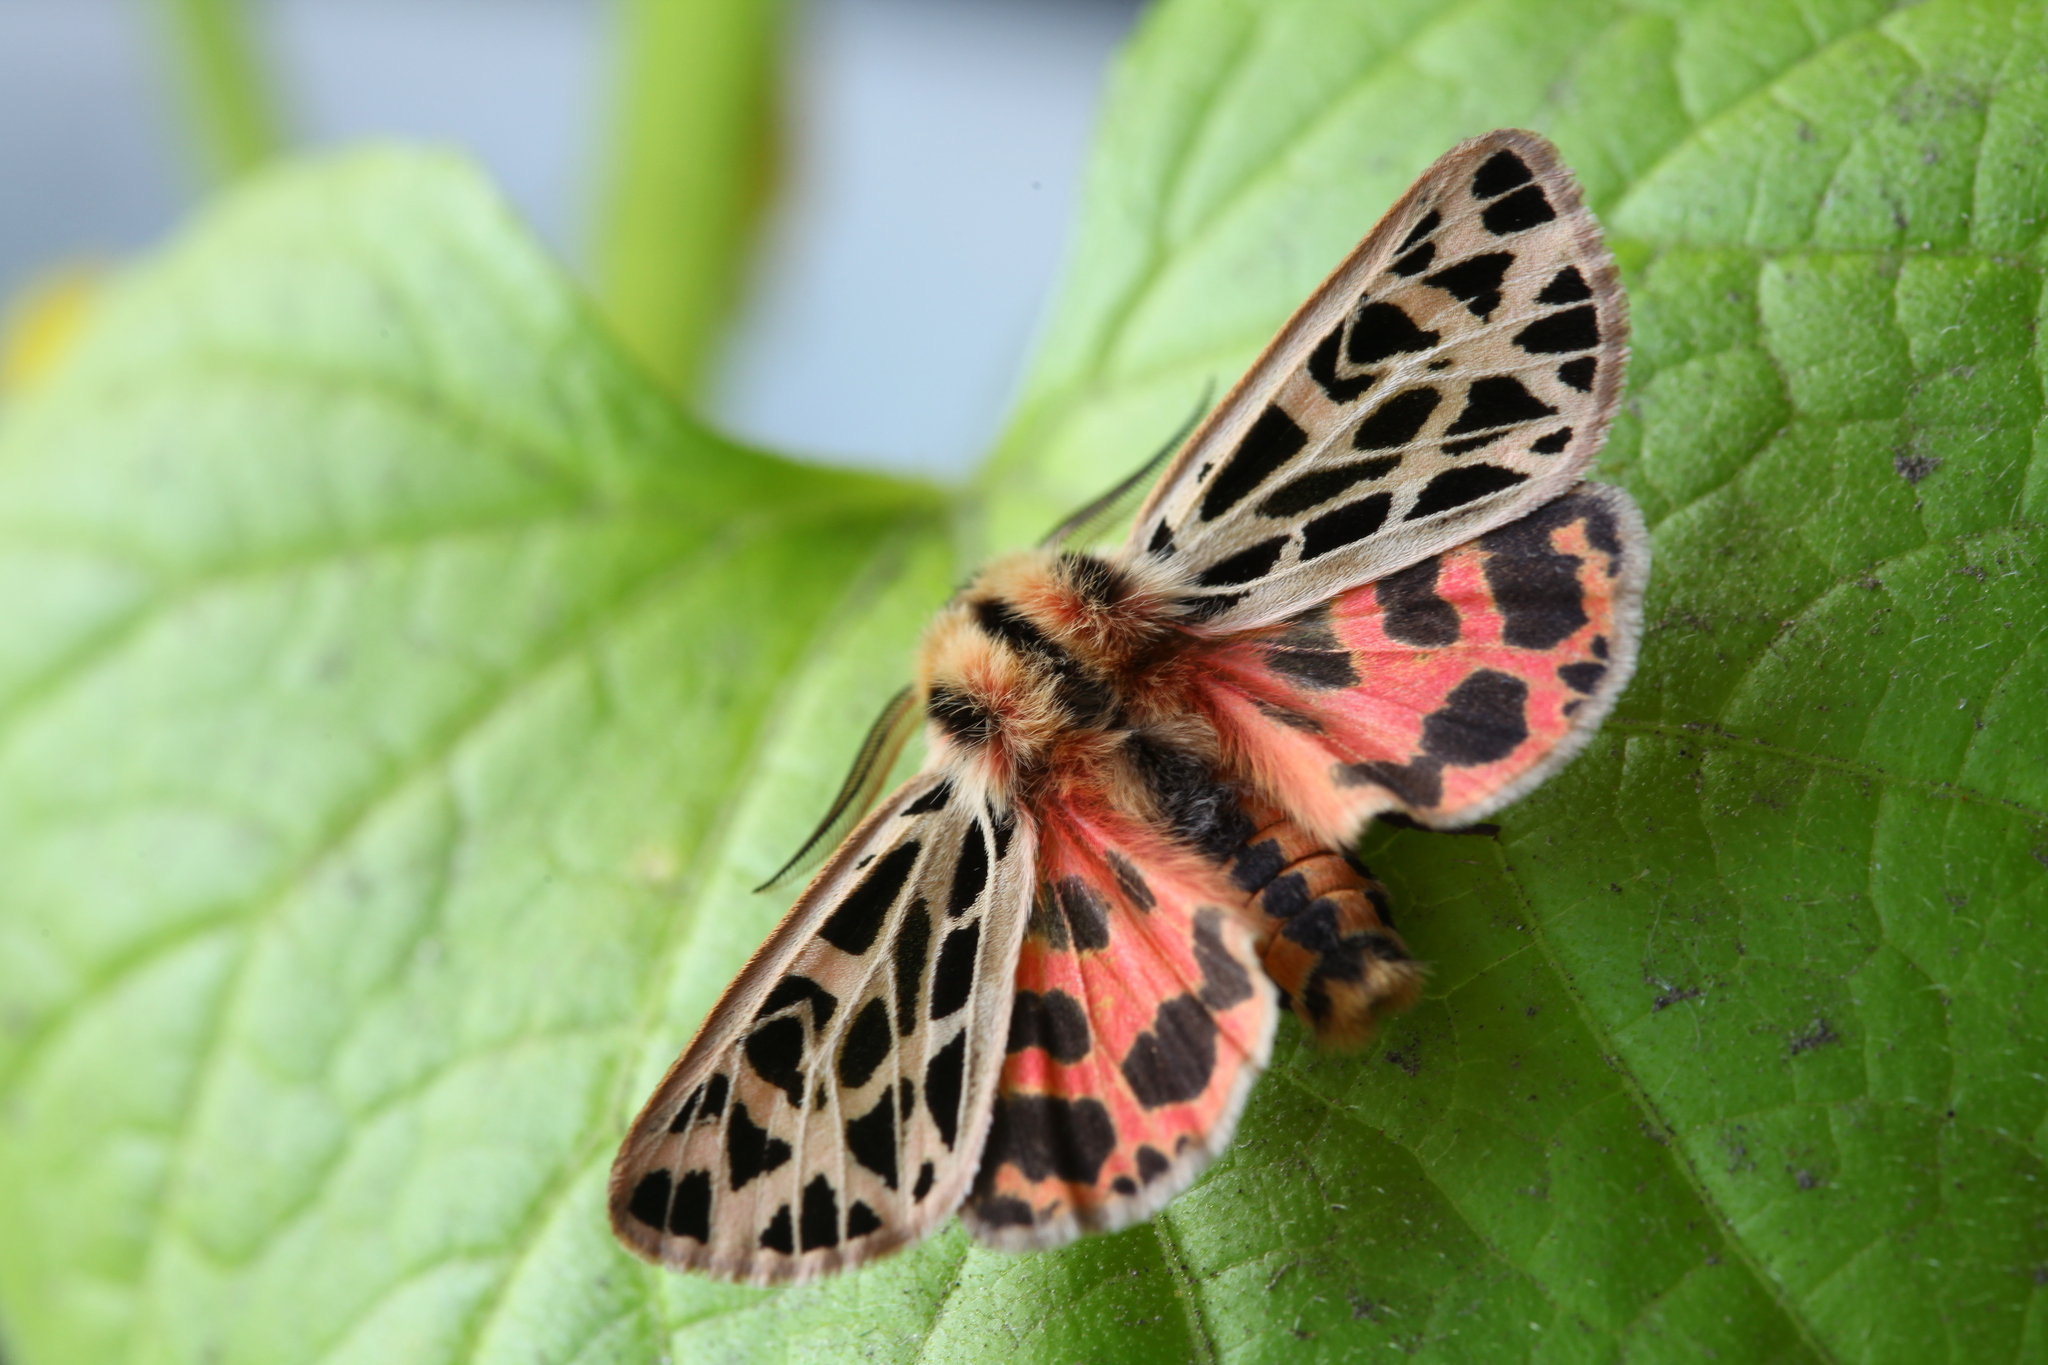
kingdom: Animalia
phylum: Arthropoda
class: Insecta
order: Lepidoptera
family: Erebidae
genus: Chelis
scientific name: Chelis dahurica
